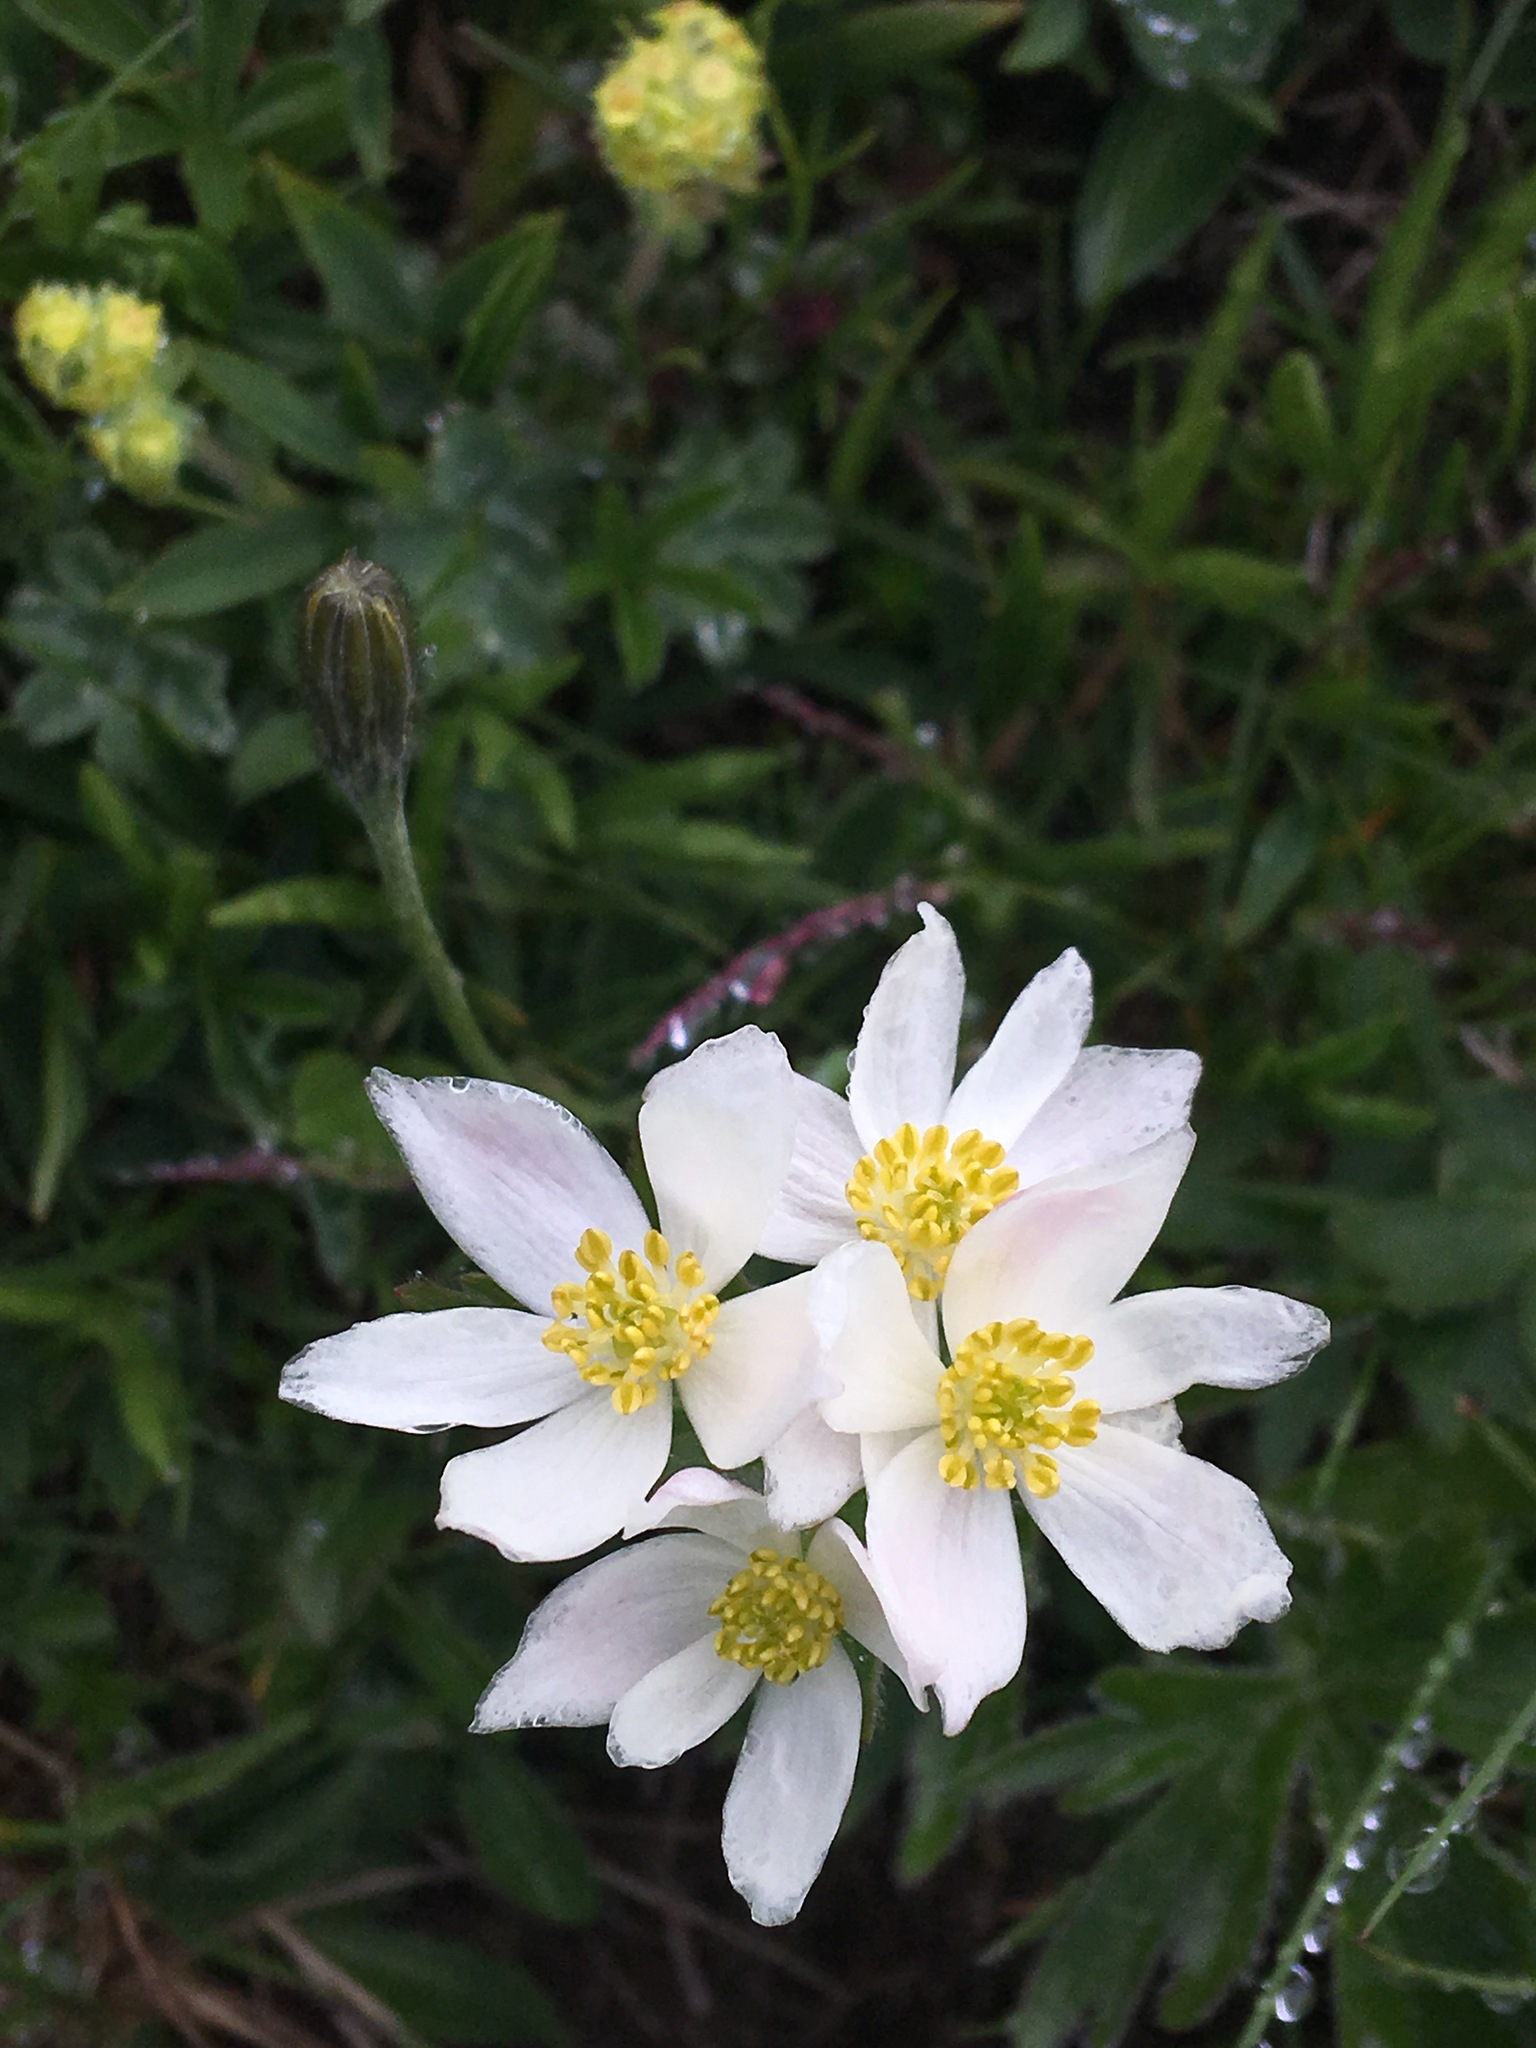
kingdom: Plantae
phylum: Tracheophyta
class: Magnoliopsida
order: Ranunculales
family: Ranunculaceae
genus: Anemonastrum
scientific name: Anemonastrum narcissiflorum
